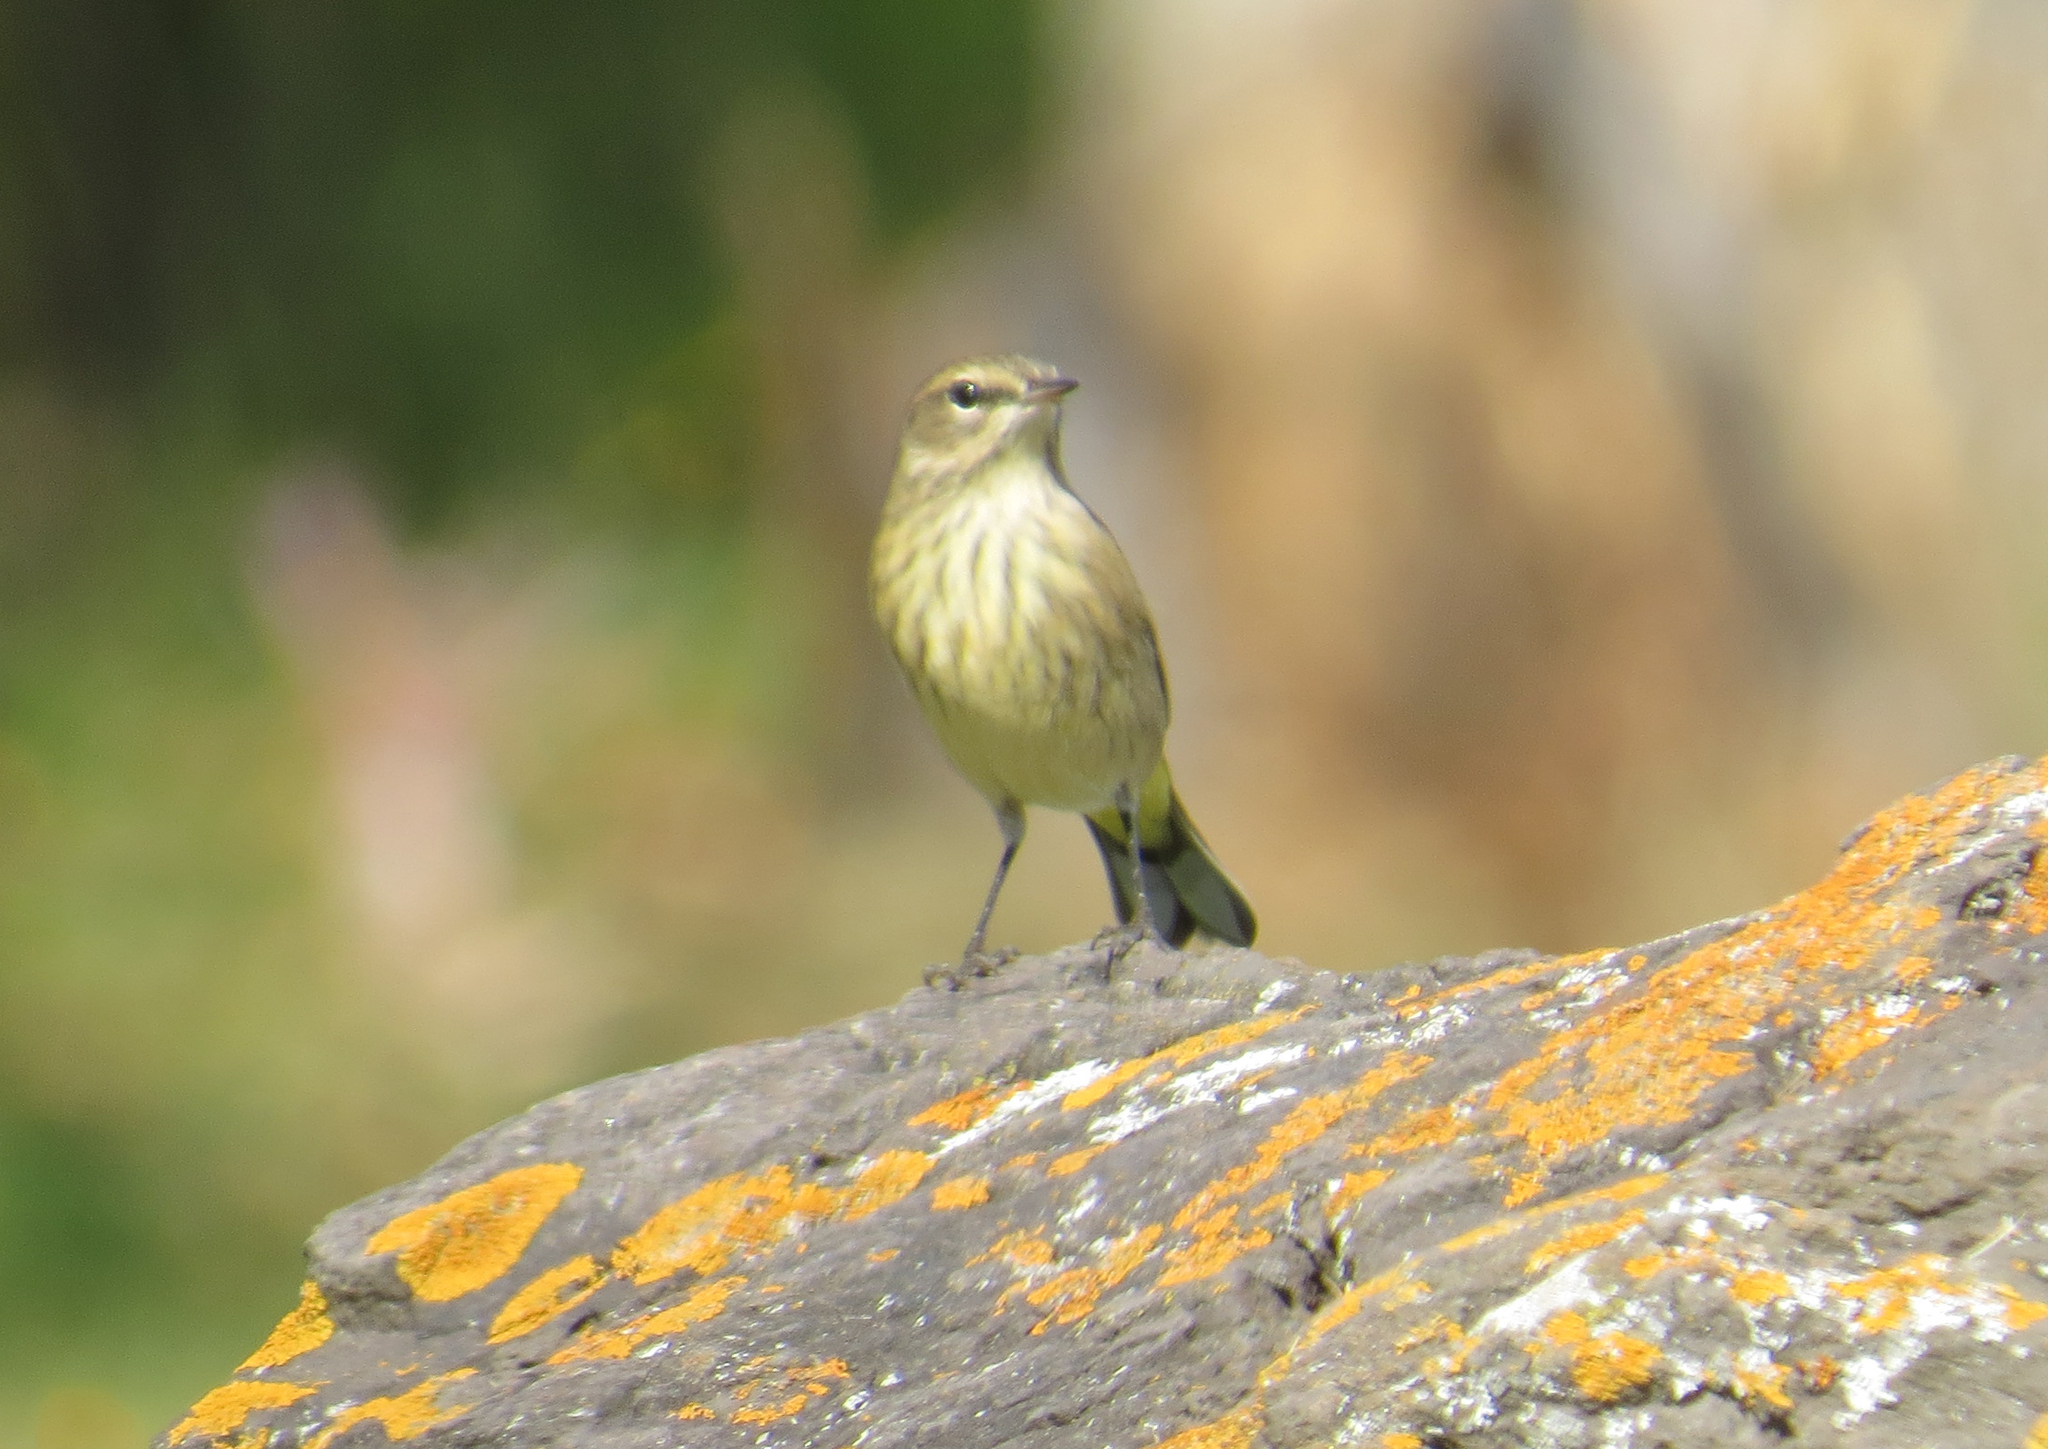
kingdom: Animalia
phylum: Chordata
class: Aves
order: Passeriformes
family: Parulidae
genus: Setophaga
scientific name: Setophaga palmarum
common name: Palm warbler
